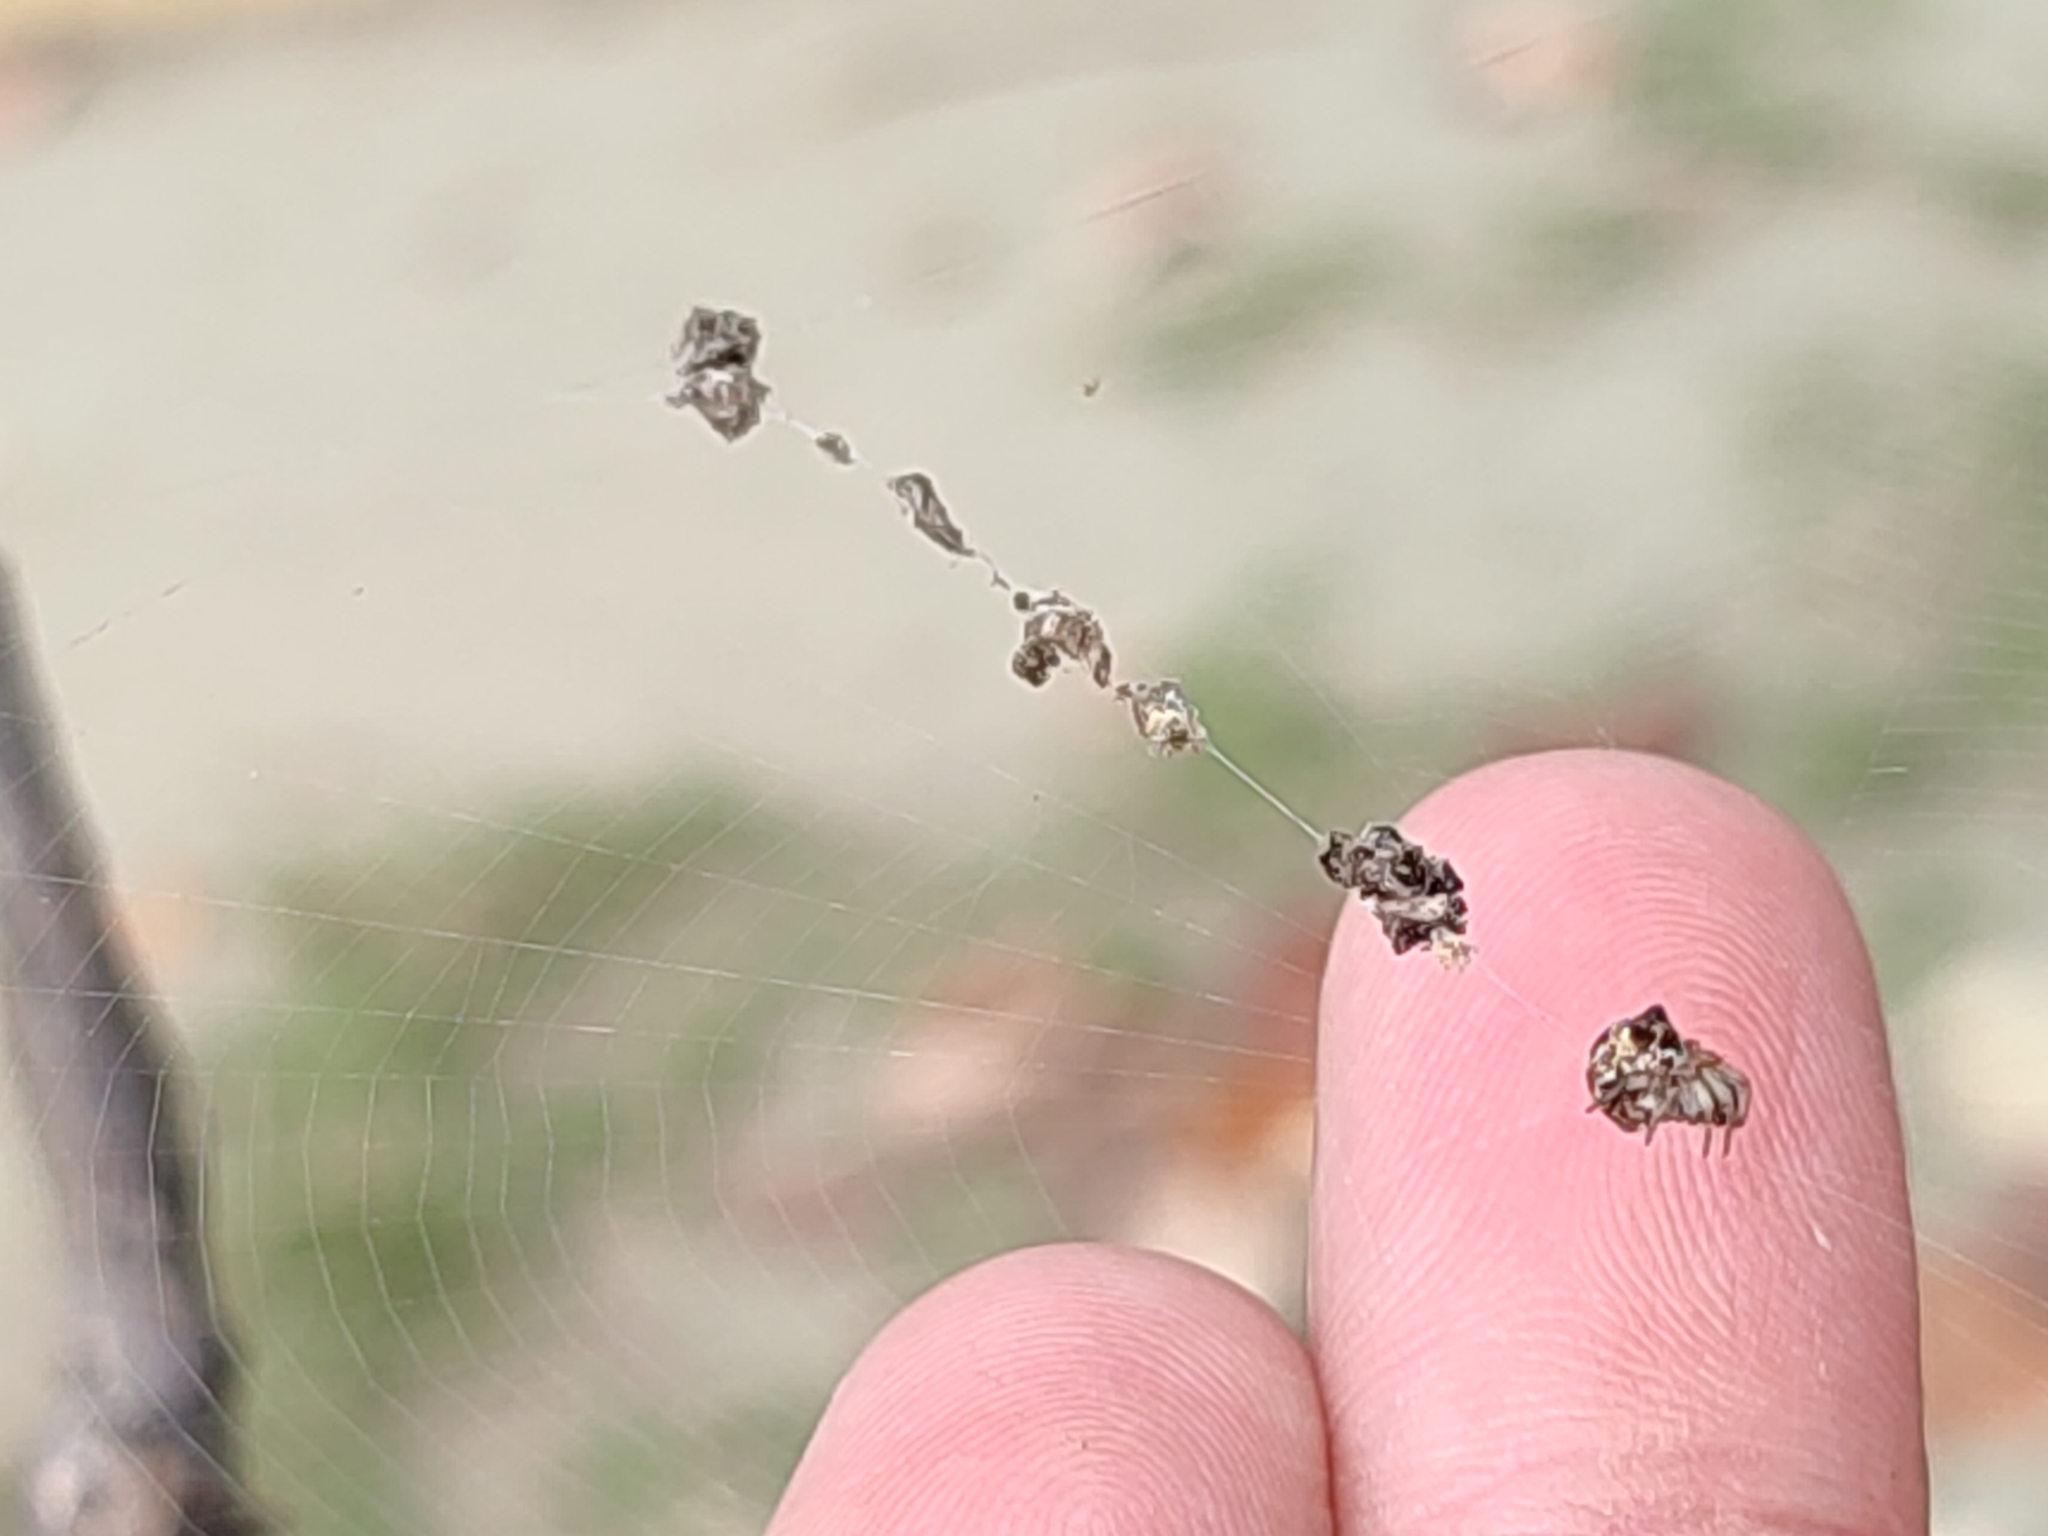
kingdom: Animalia
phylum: Arthropoda
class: Arachnida
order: Araneae
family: Araneidae
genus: Cyclosa
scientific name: Cyclosa mulmeinensis
